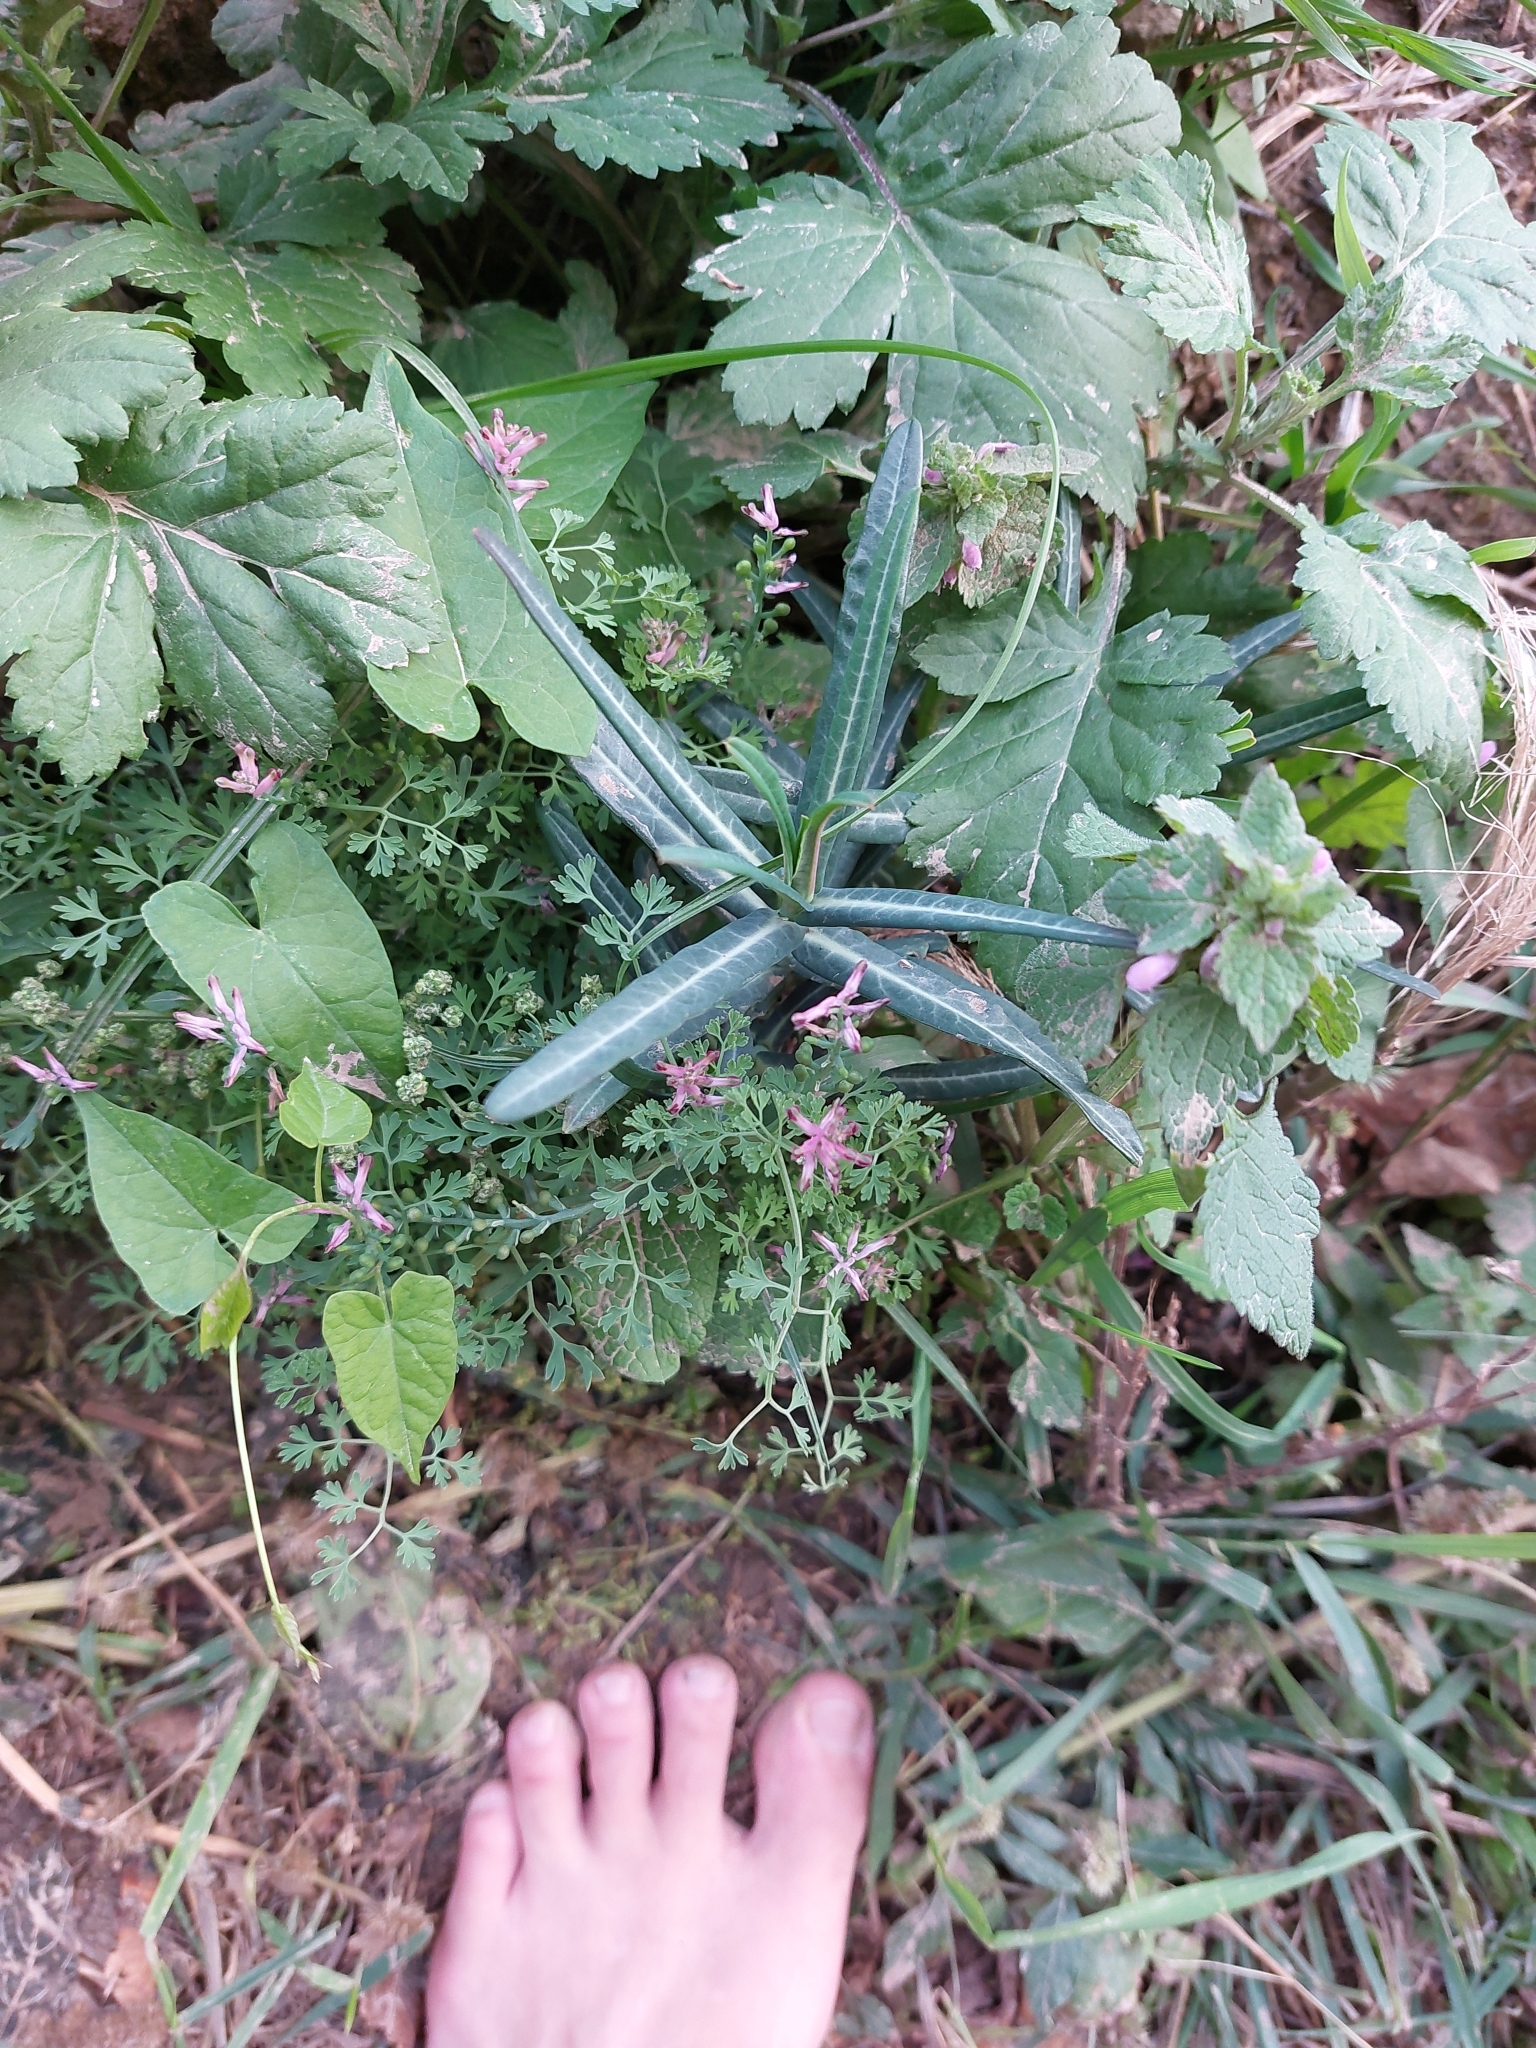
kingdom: Plantae
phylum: Tracheophyta
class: Magnoliopsida
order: Malpighiales
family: Euphorbiaceae
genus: Euphorbia
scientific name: Euphorbia lathyris
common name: Caper spurge
